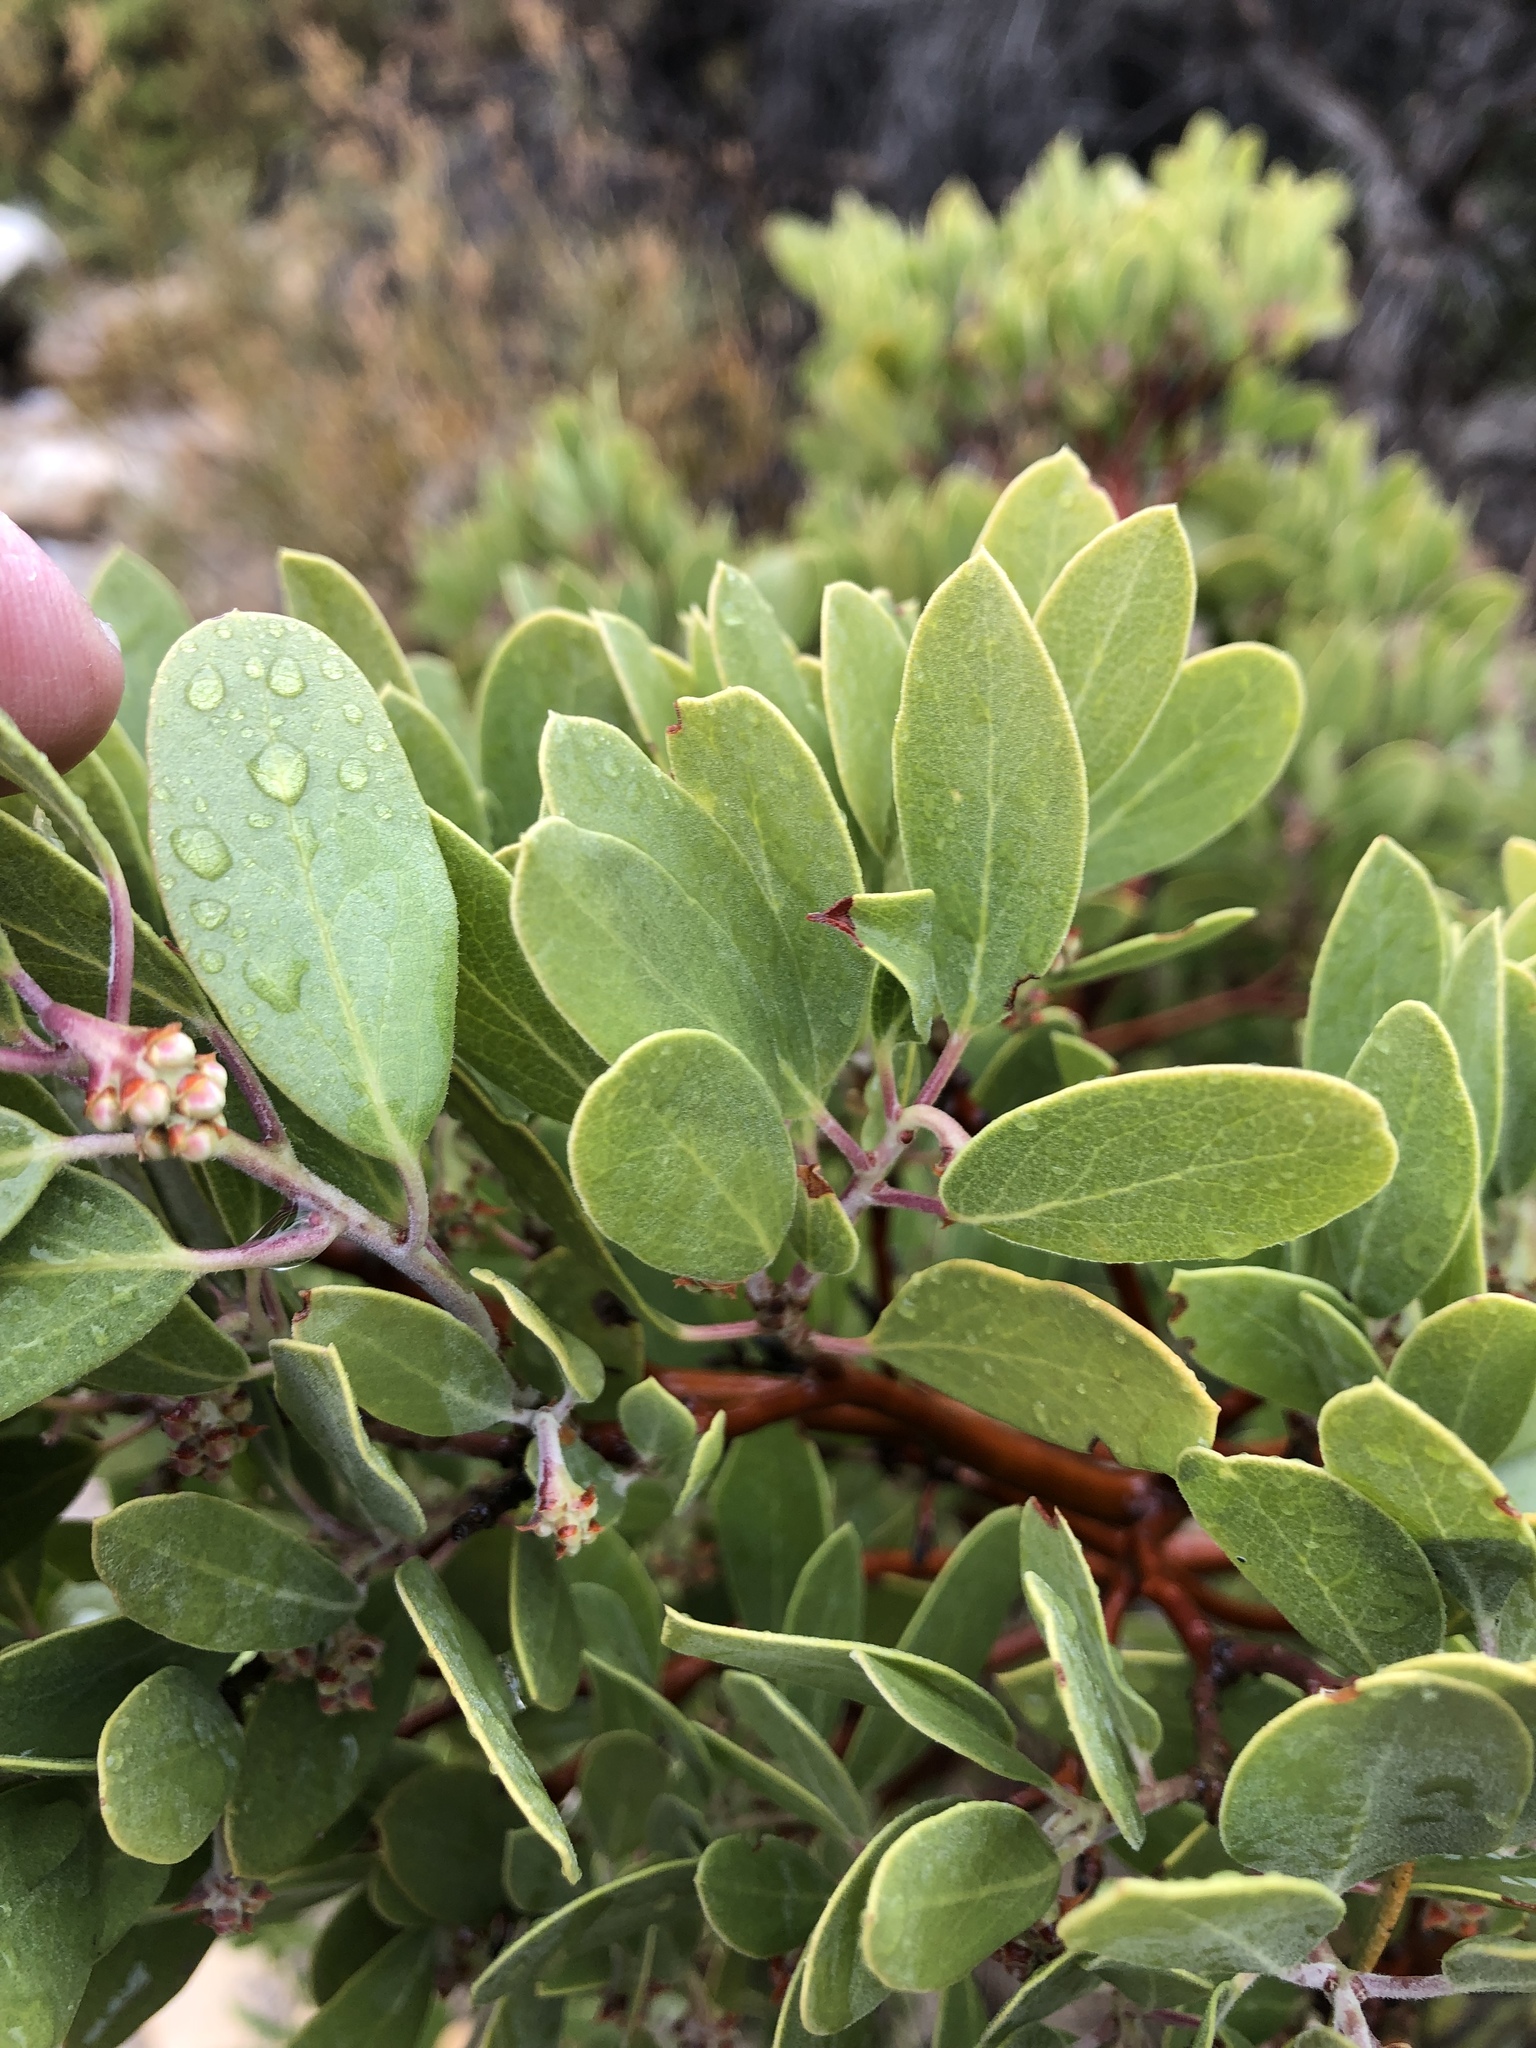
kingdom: Plantae
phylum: Tracheophyta
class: Magnoliopsida
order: Ericales
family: Ericaceae
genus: Arctostaphylos
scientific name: Arctostaphylos pungens
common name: Mexican manzanita
